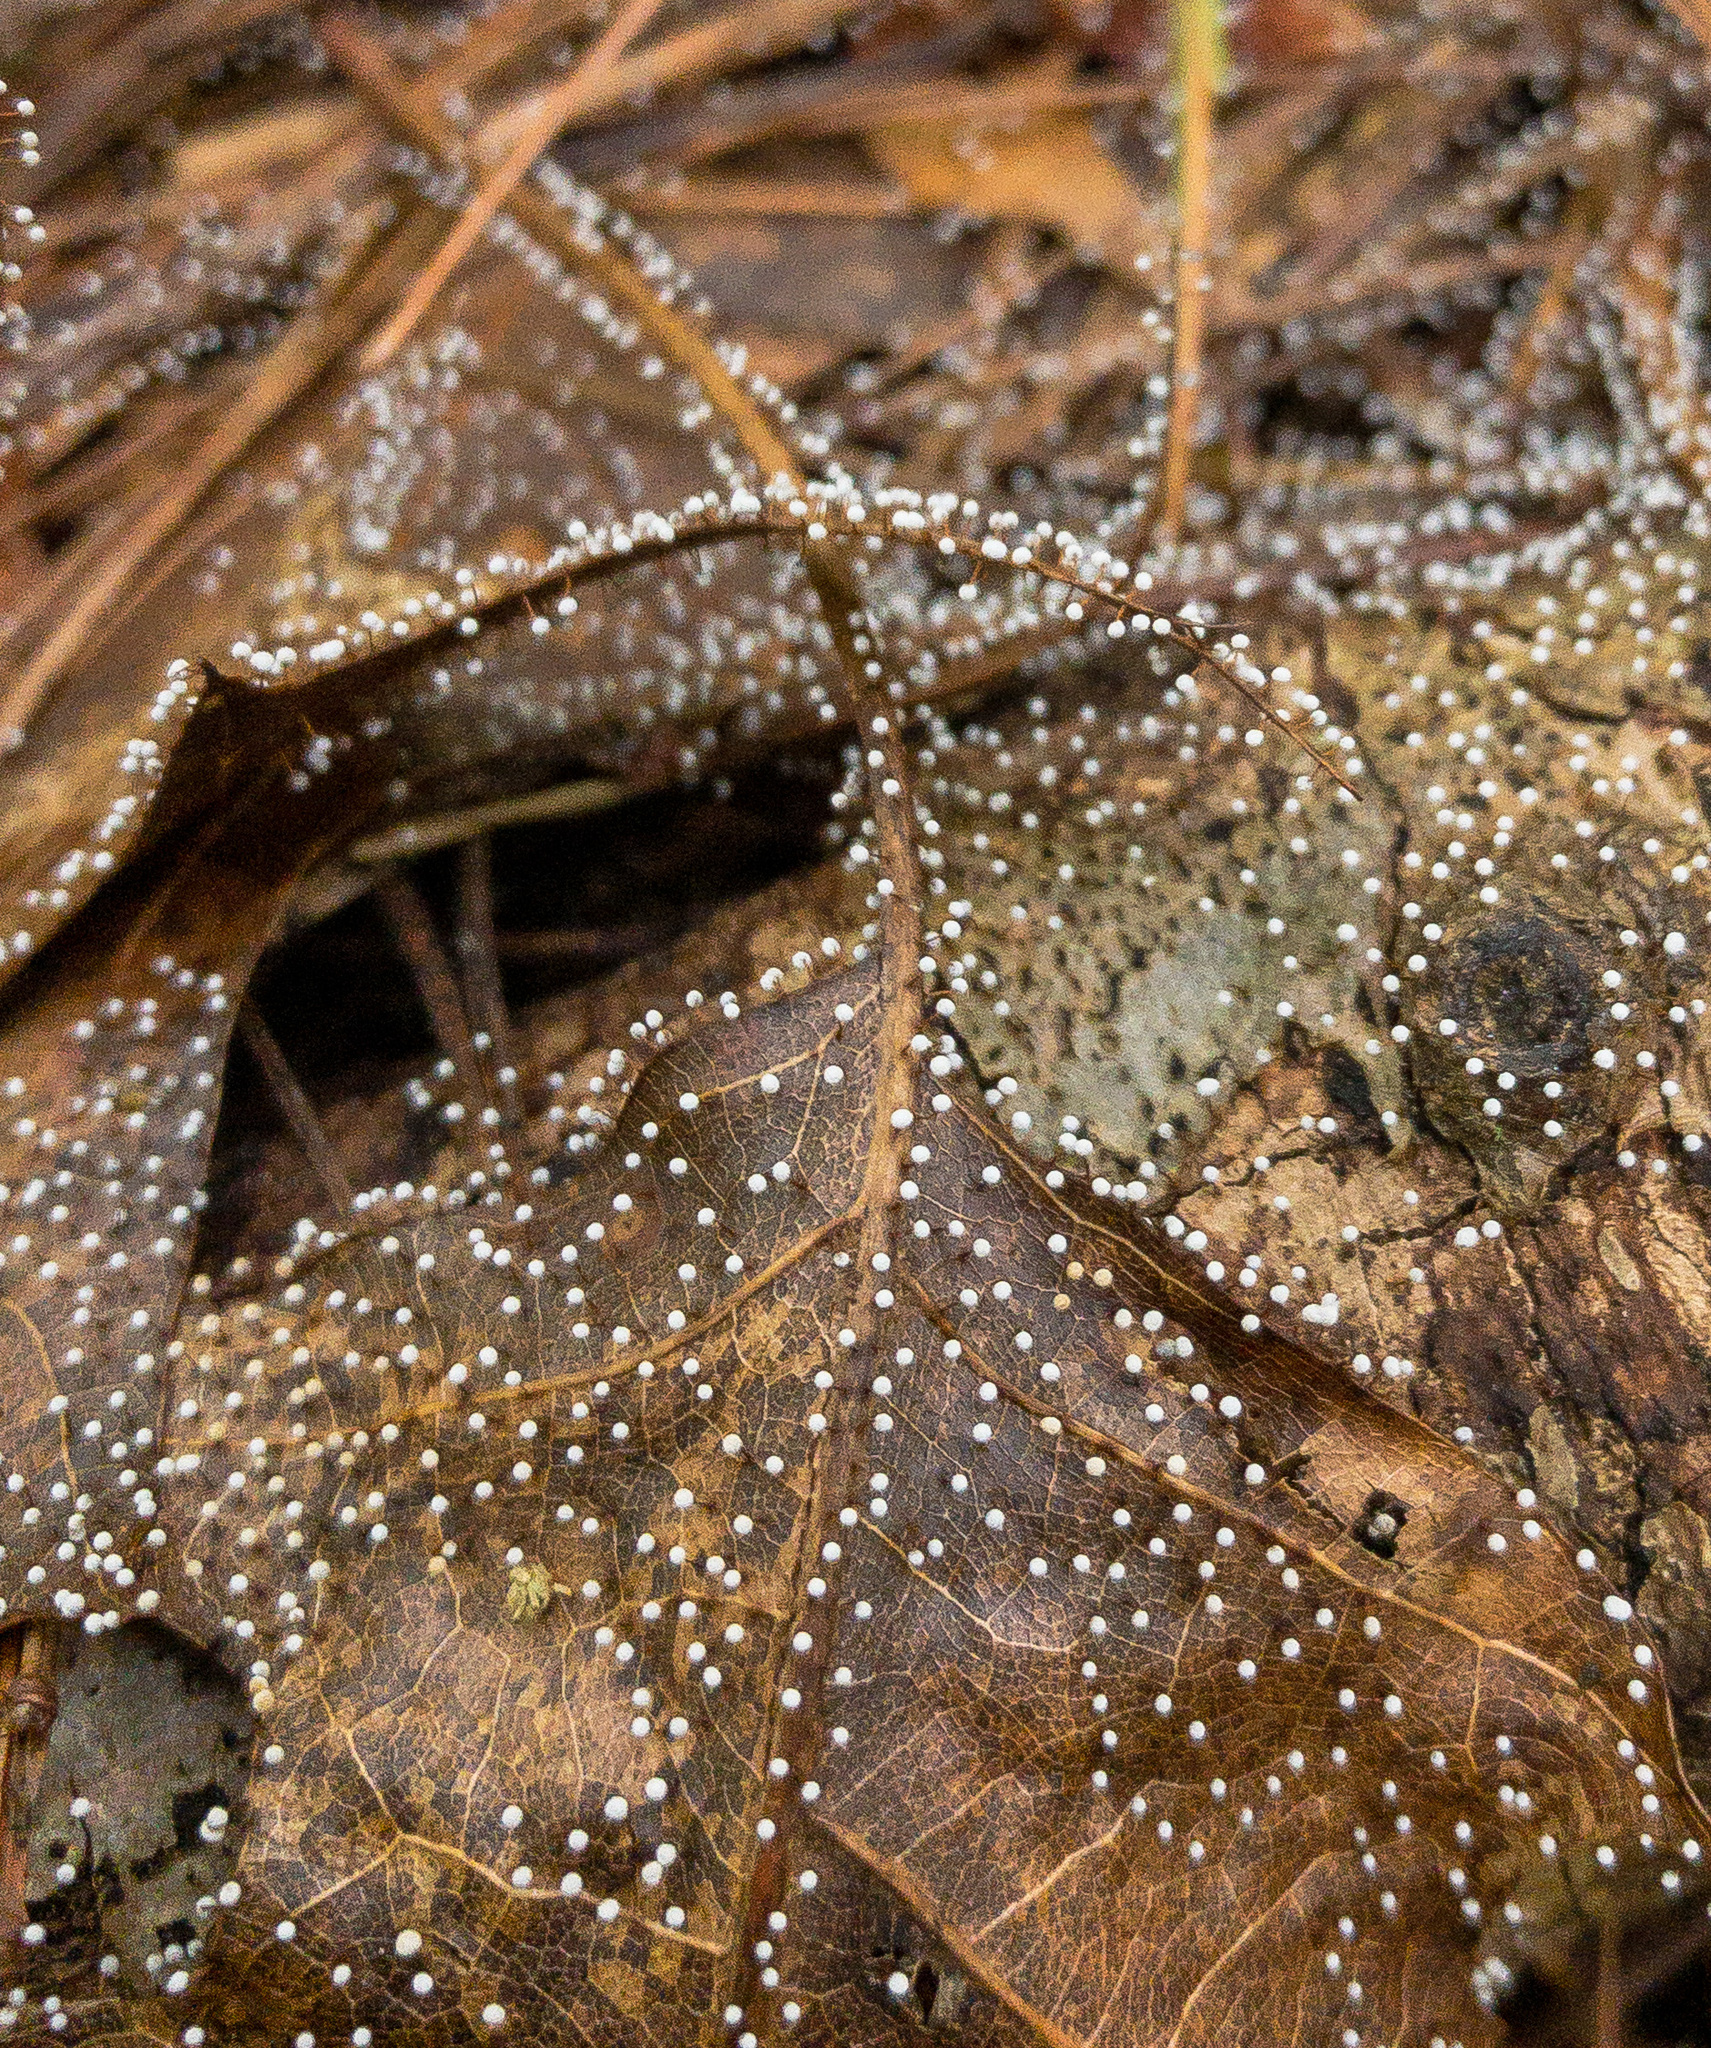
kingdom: Protozoa
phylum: Mycetozoa
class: Myxomycetes
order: Physarales
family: Physaraceae
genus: Physarum
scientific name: Physarum album
